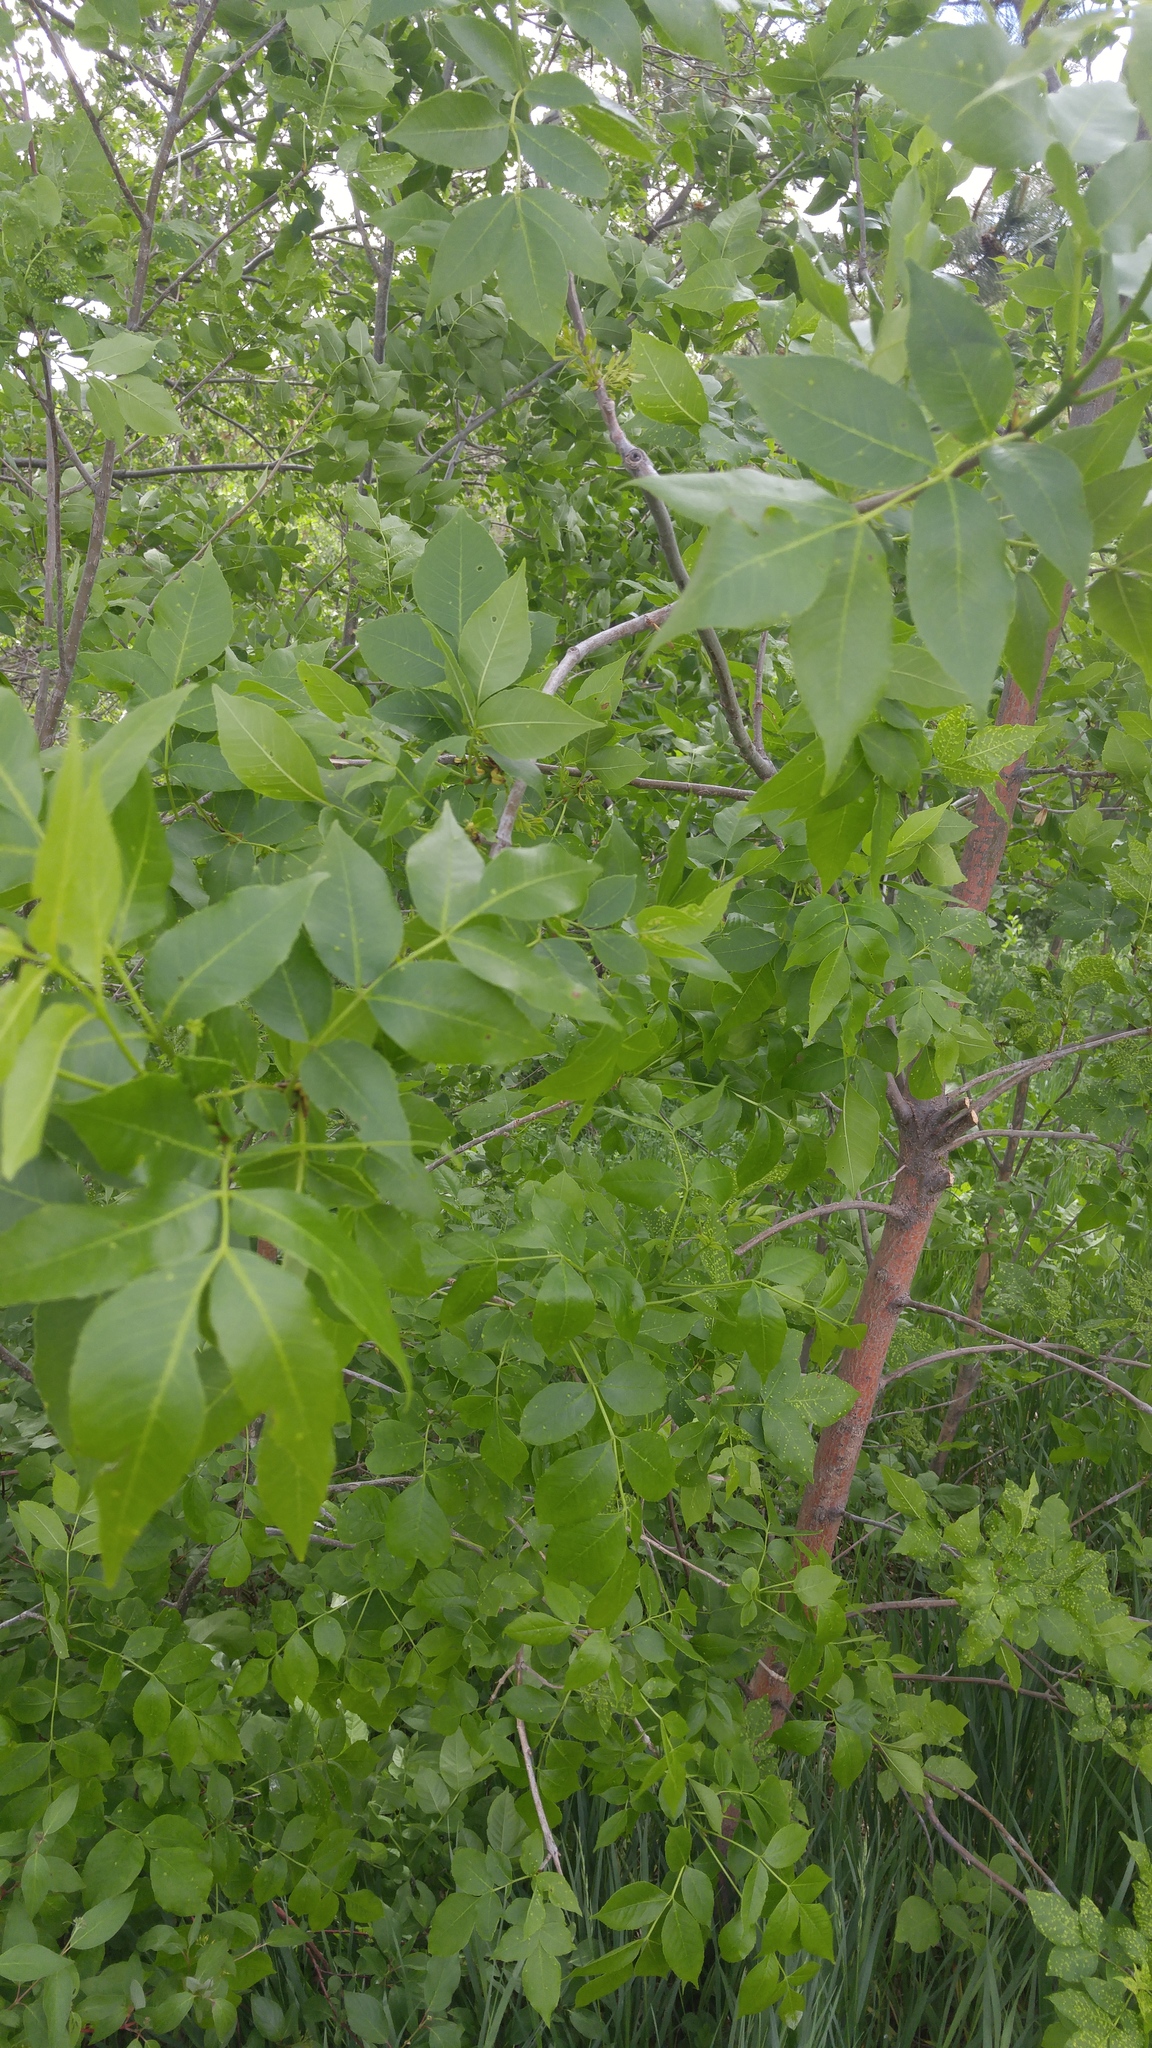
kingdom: Plantae
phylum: Tracheophyta
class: Magnoliopsida
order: Lamiales
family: Oleaceae
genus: Fraxinus
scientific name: Fraxinus pennsylvanica
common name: Green ash
